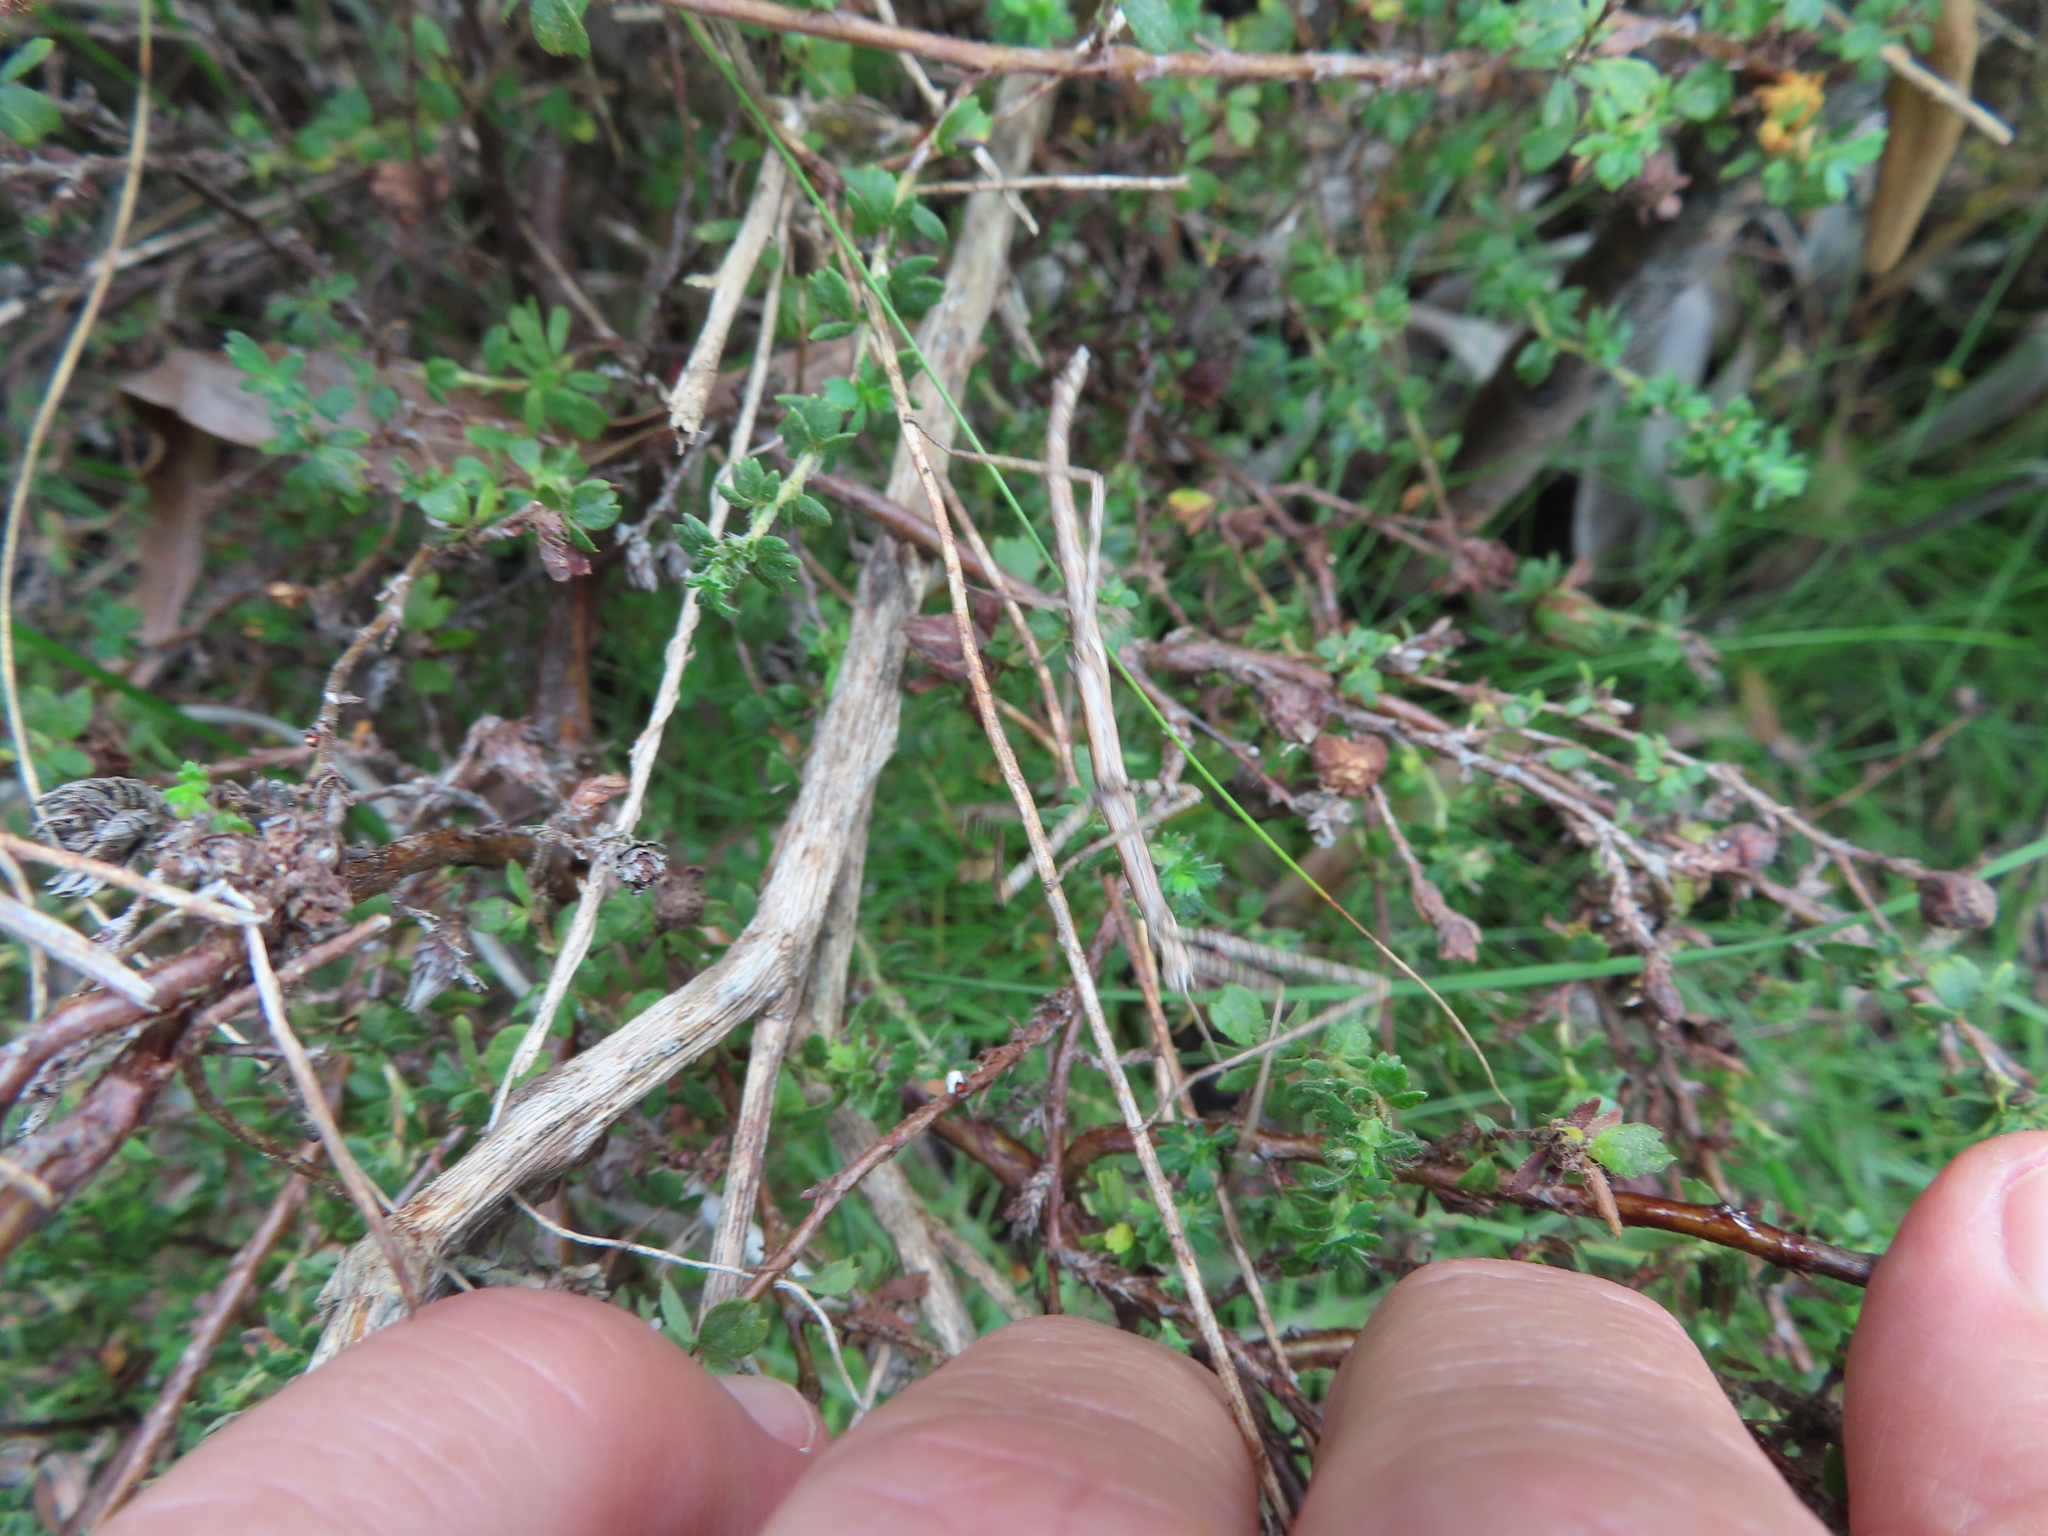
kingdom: Plantae
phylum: Tracheophyta
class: Magnoliopsida
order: Rosales
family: Rosaceae
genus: Cliffortia
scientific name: Cliffortia filicaulis
